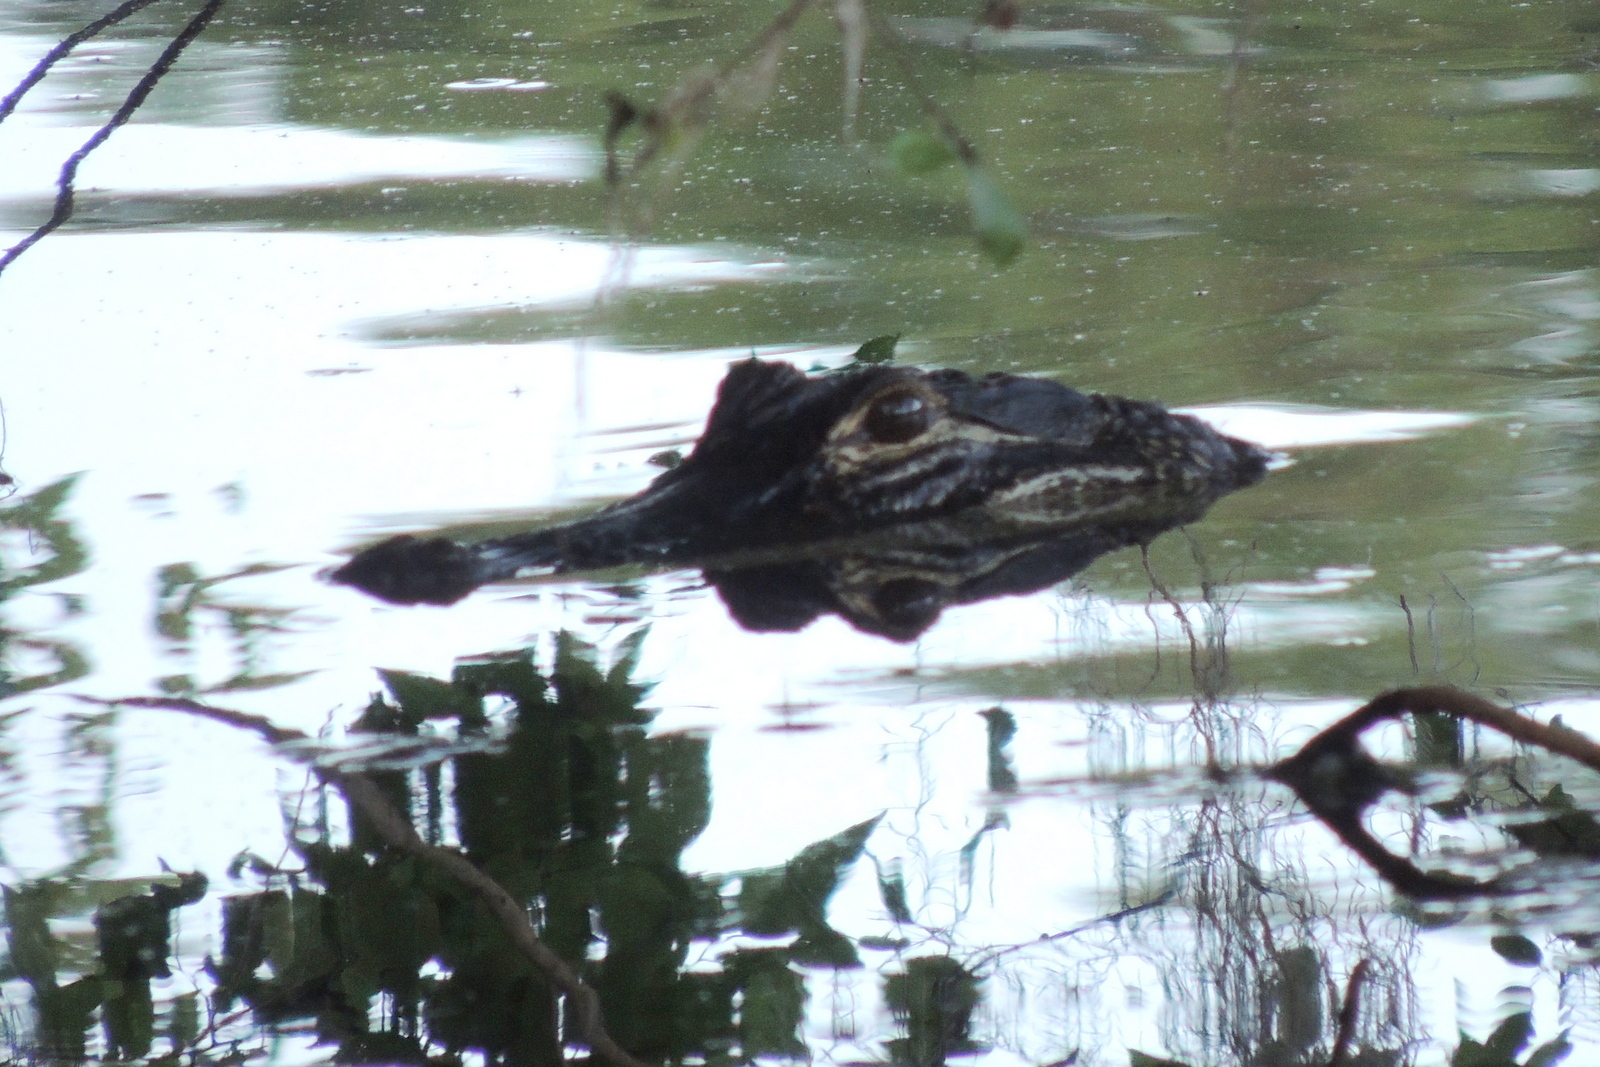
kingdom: Animalia
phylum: Chordata
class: Crocodylia
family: Alligatoridae
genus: Alligator
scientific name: Alligator mississippiensis
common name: American alligator
